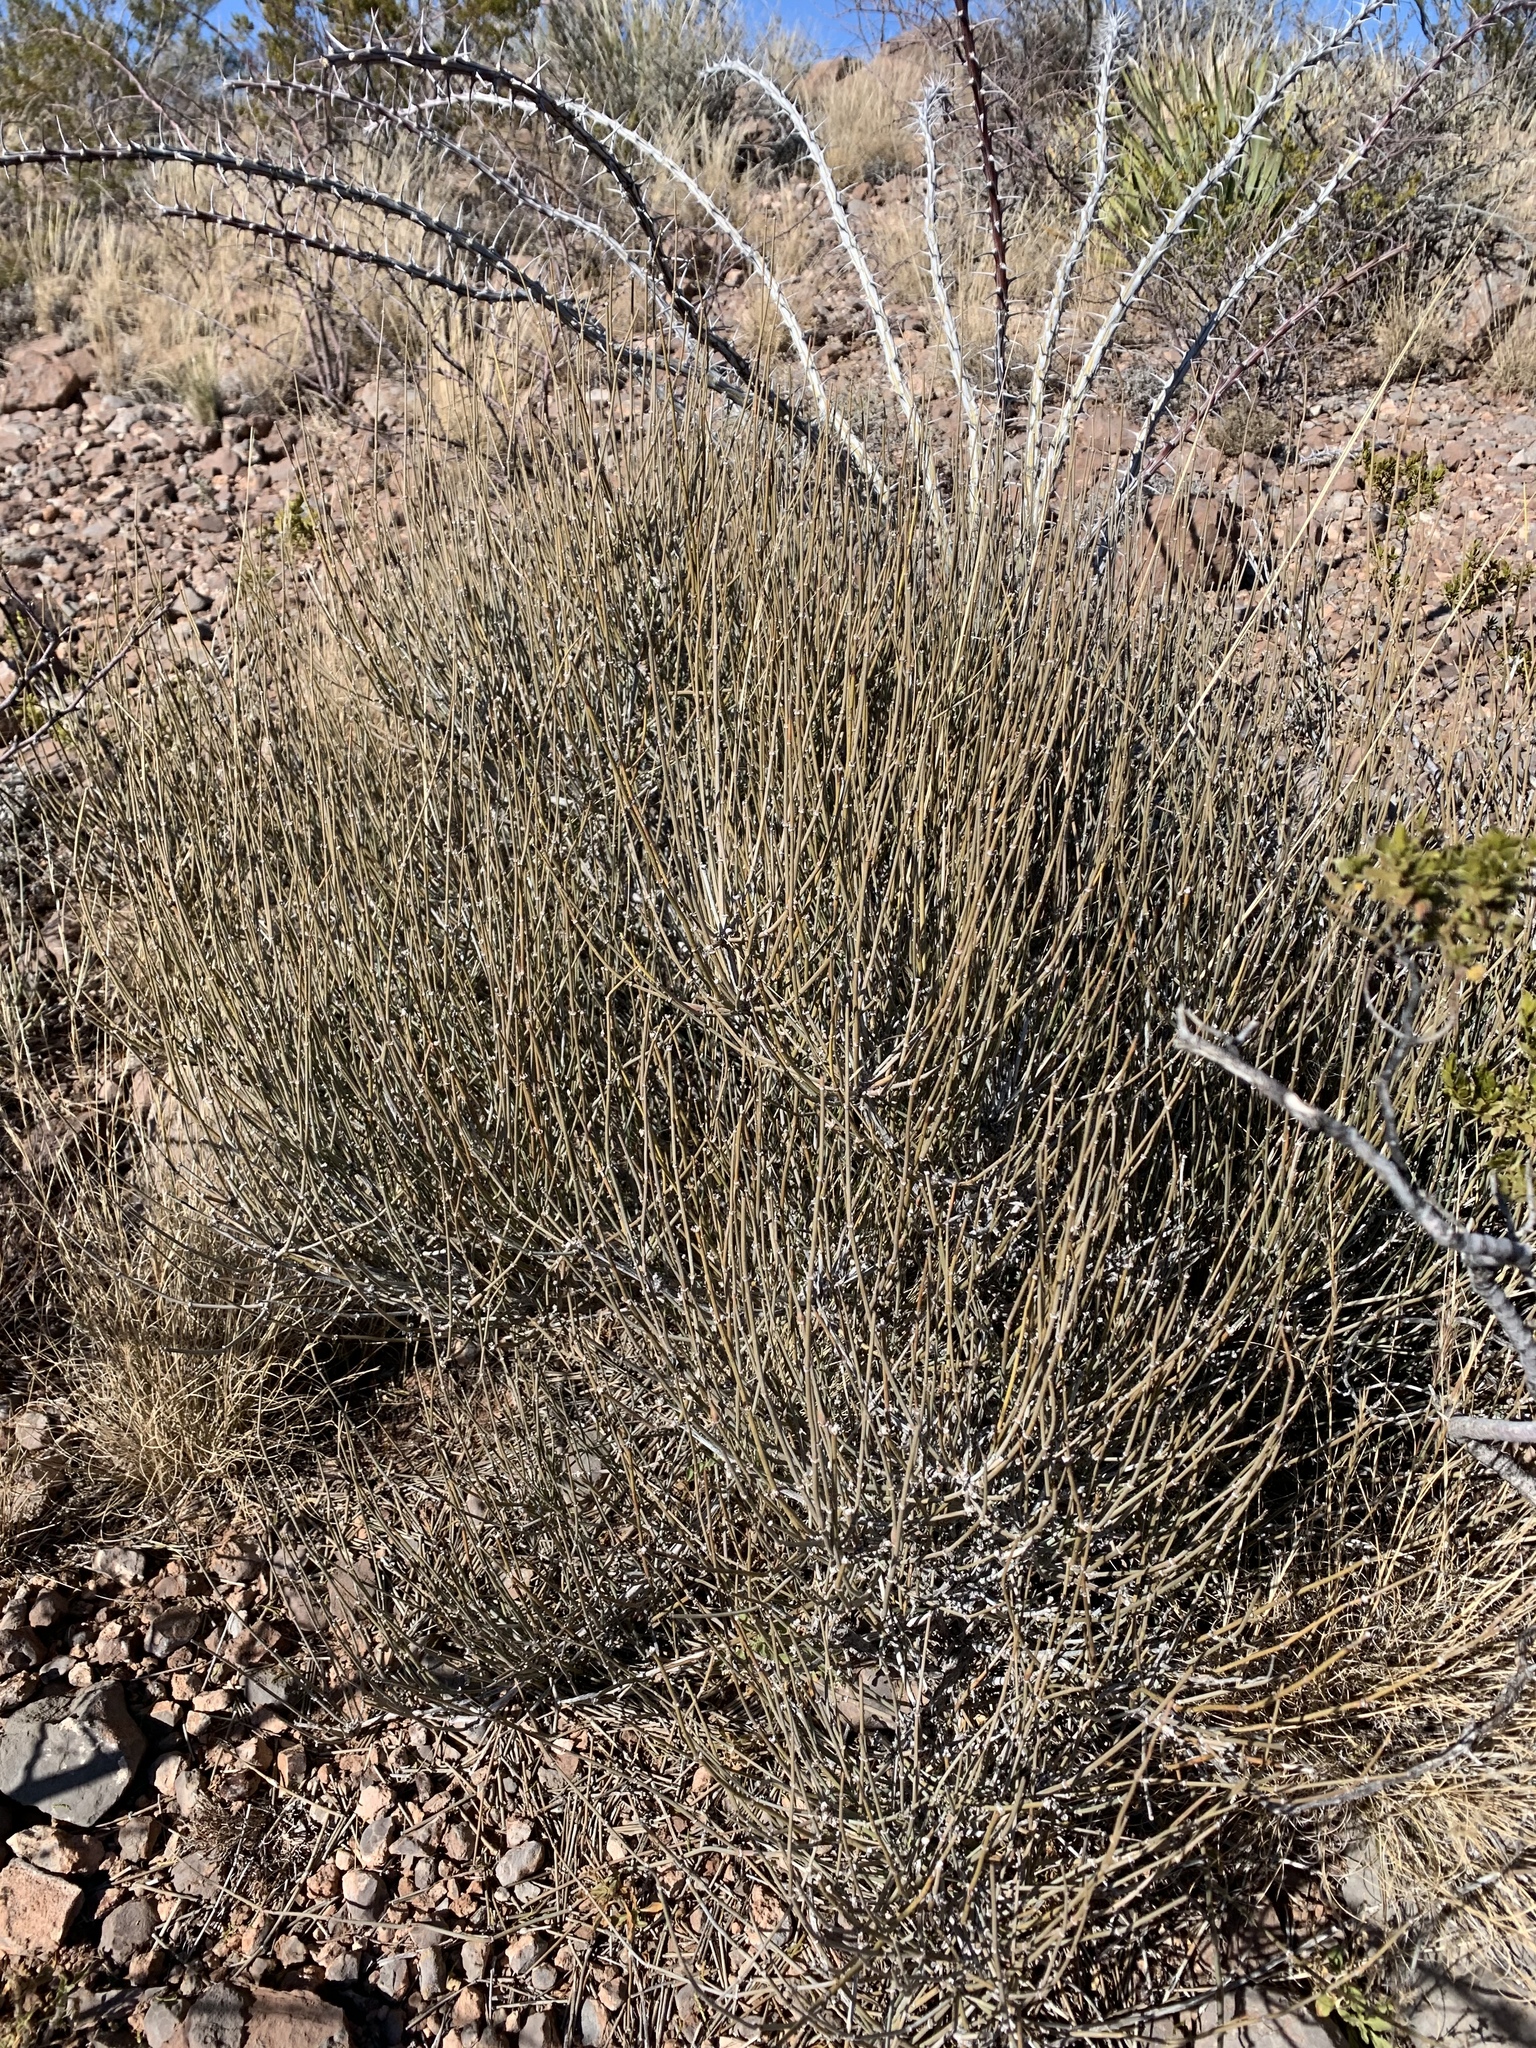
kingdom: Plantae
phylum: Tracheophyta
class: Gnetopsida
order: Ephedrales
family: Ephedraceae
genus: Ephedra
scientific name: Ephedra trifurca
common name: Mexican-tea
